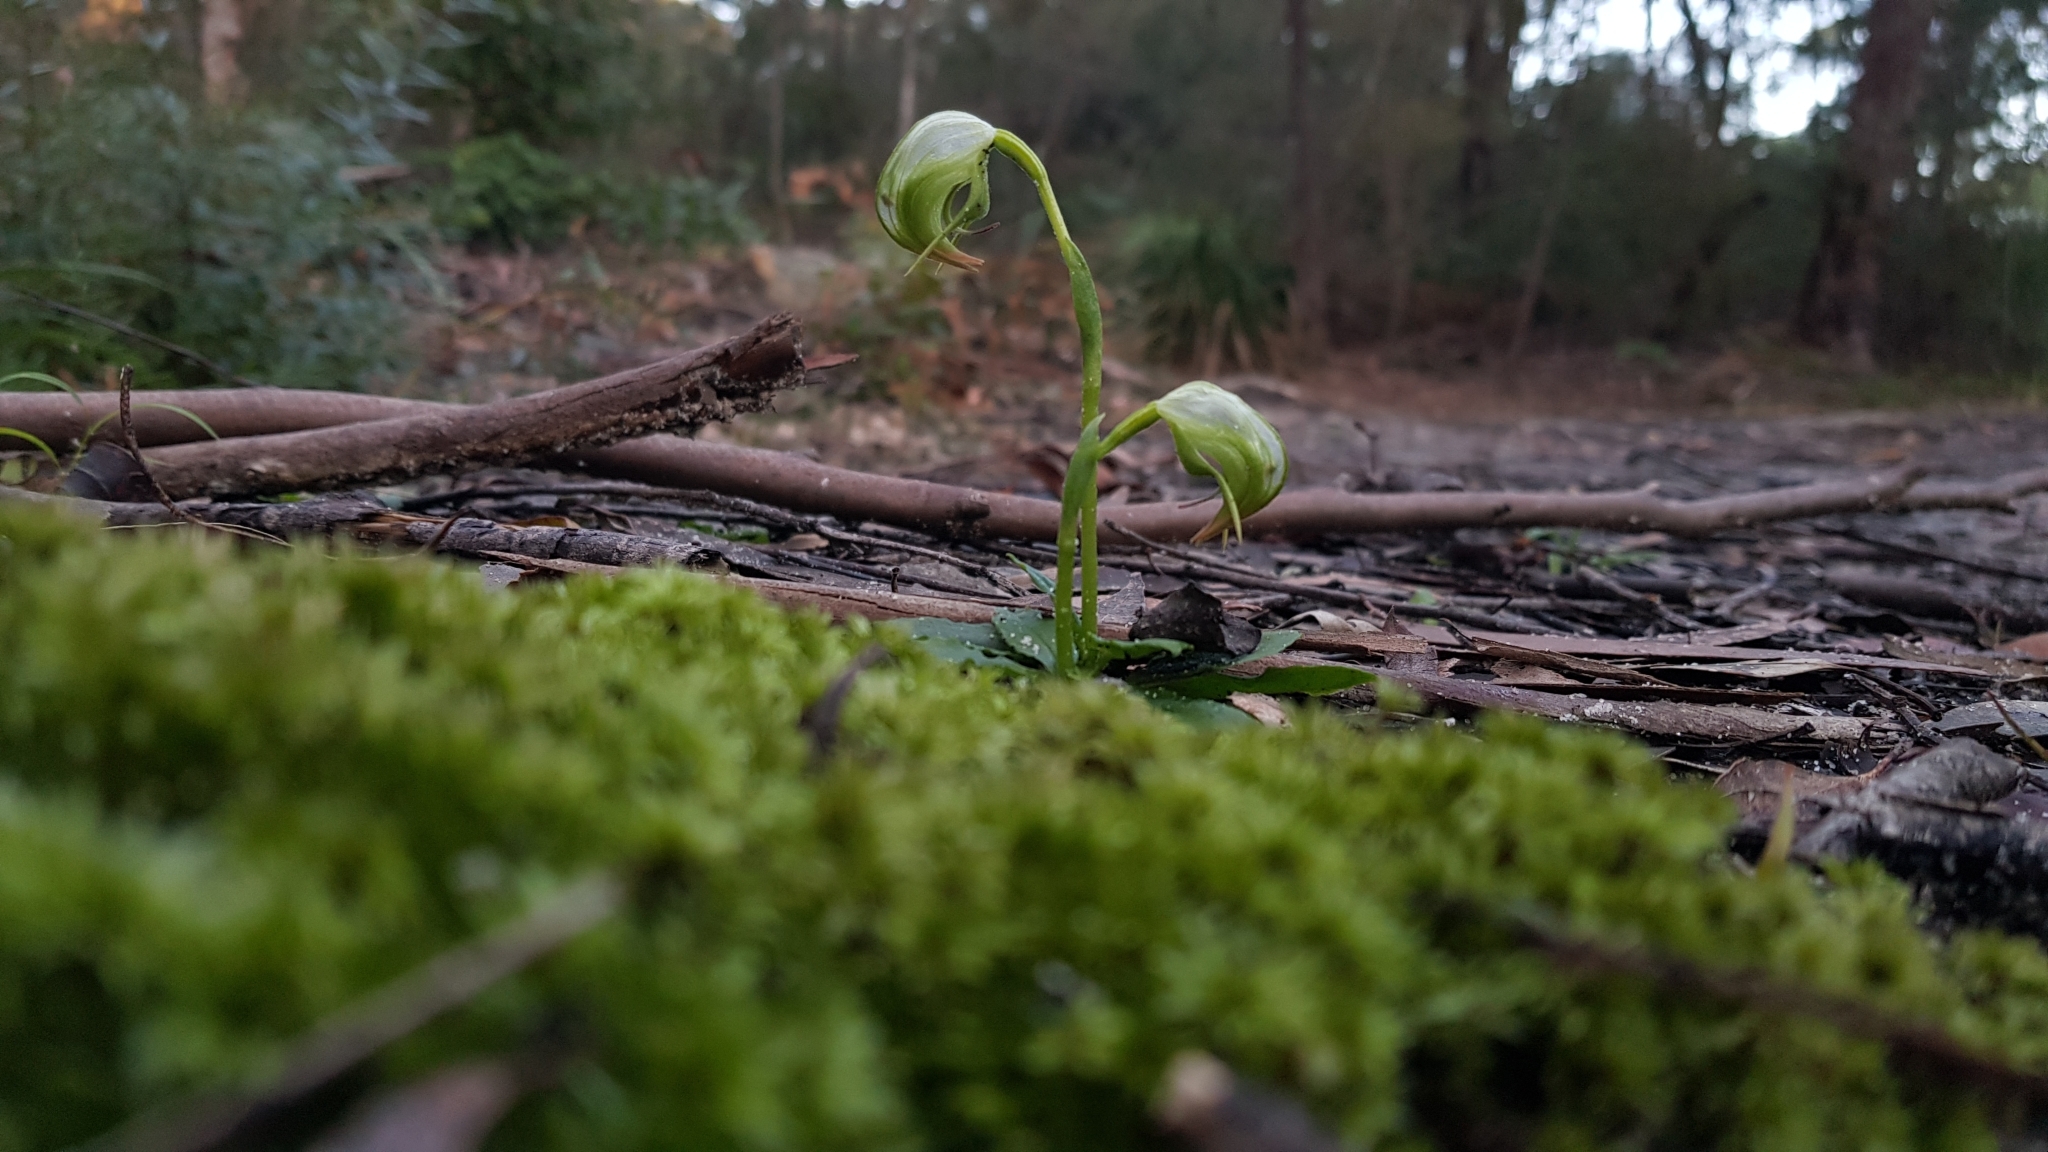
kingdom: Plantae
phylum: Tracheophyta
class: Liliopsida
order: Asparagales
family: Orchidaceae
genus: Pterostylis
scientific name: Pterostylis nutans
